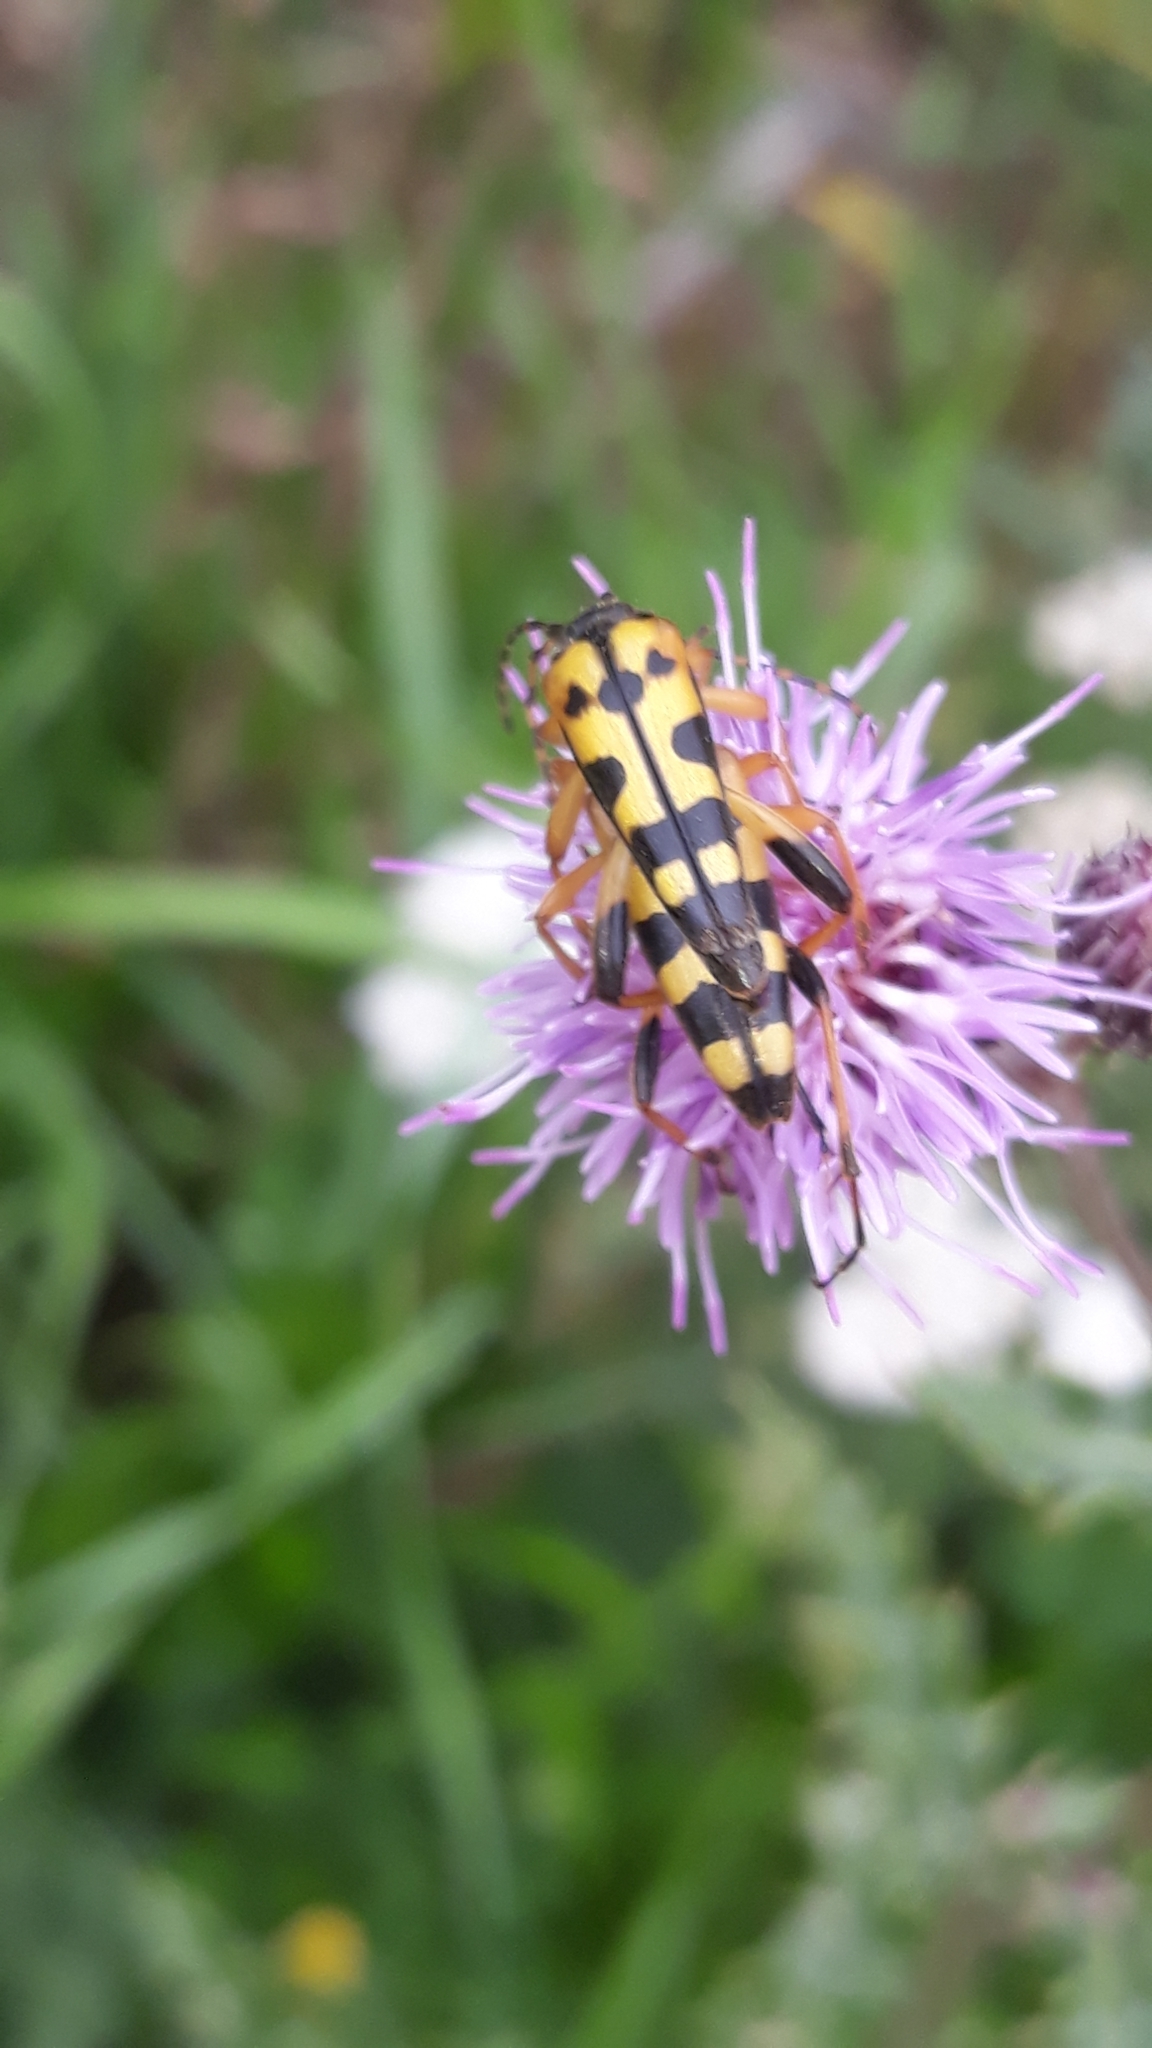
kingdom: Animalia
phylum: Arthropoda
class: Insecta
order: Coleoptera
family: Cerambycidae
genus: Rutpela
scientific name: Rutpela maculata
